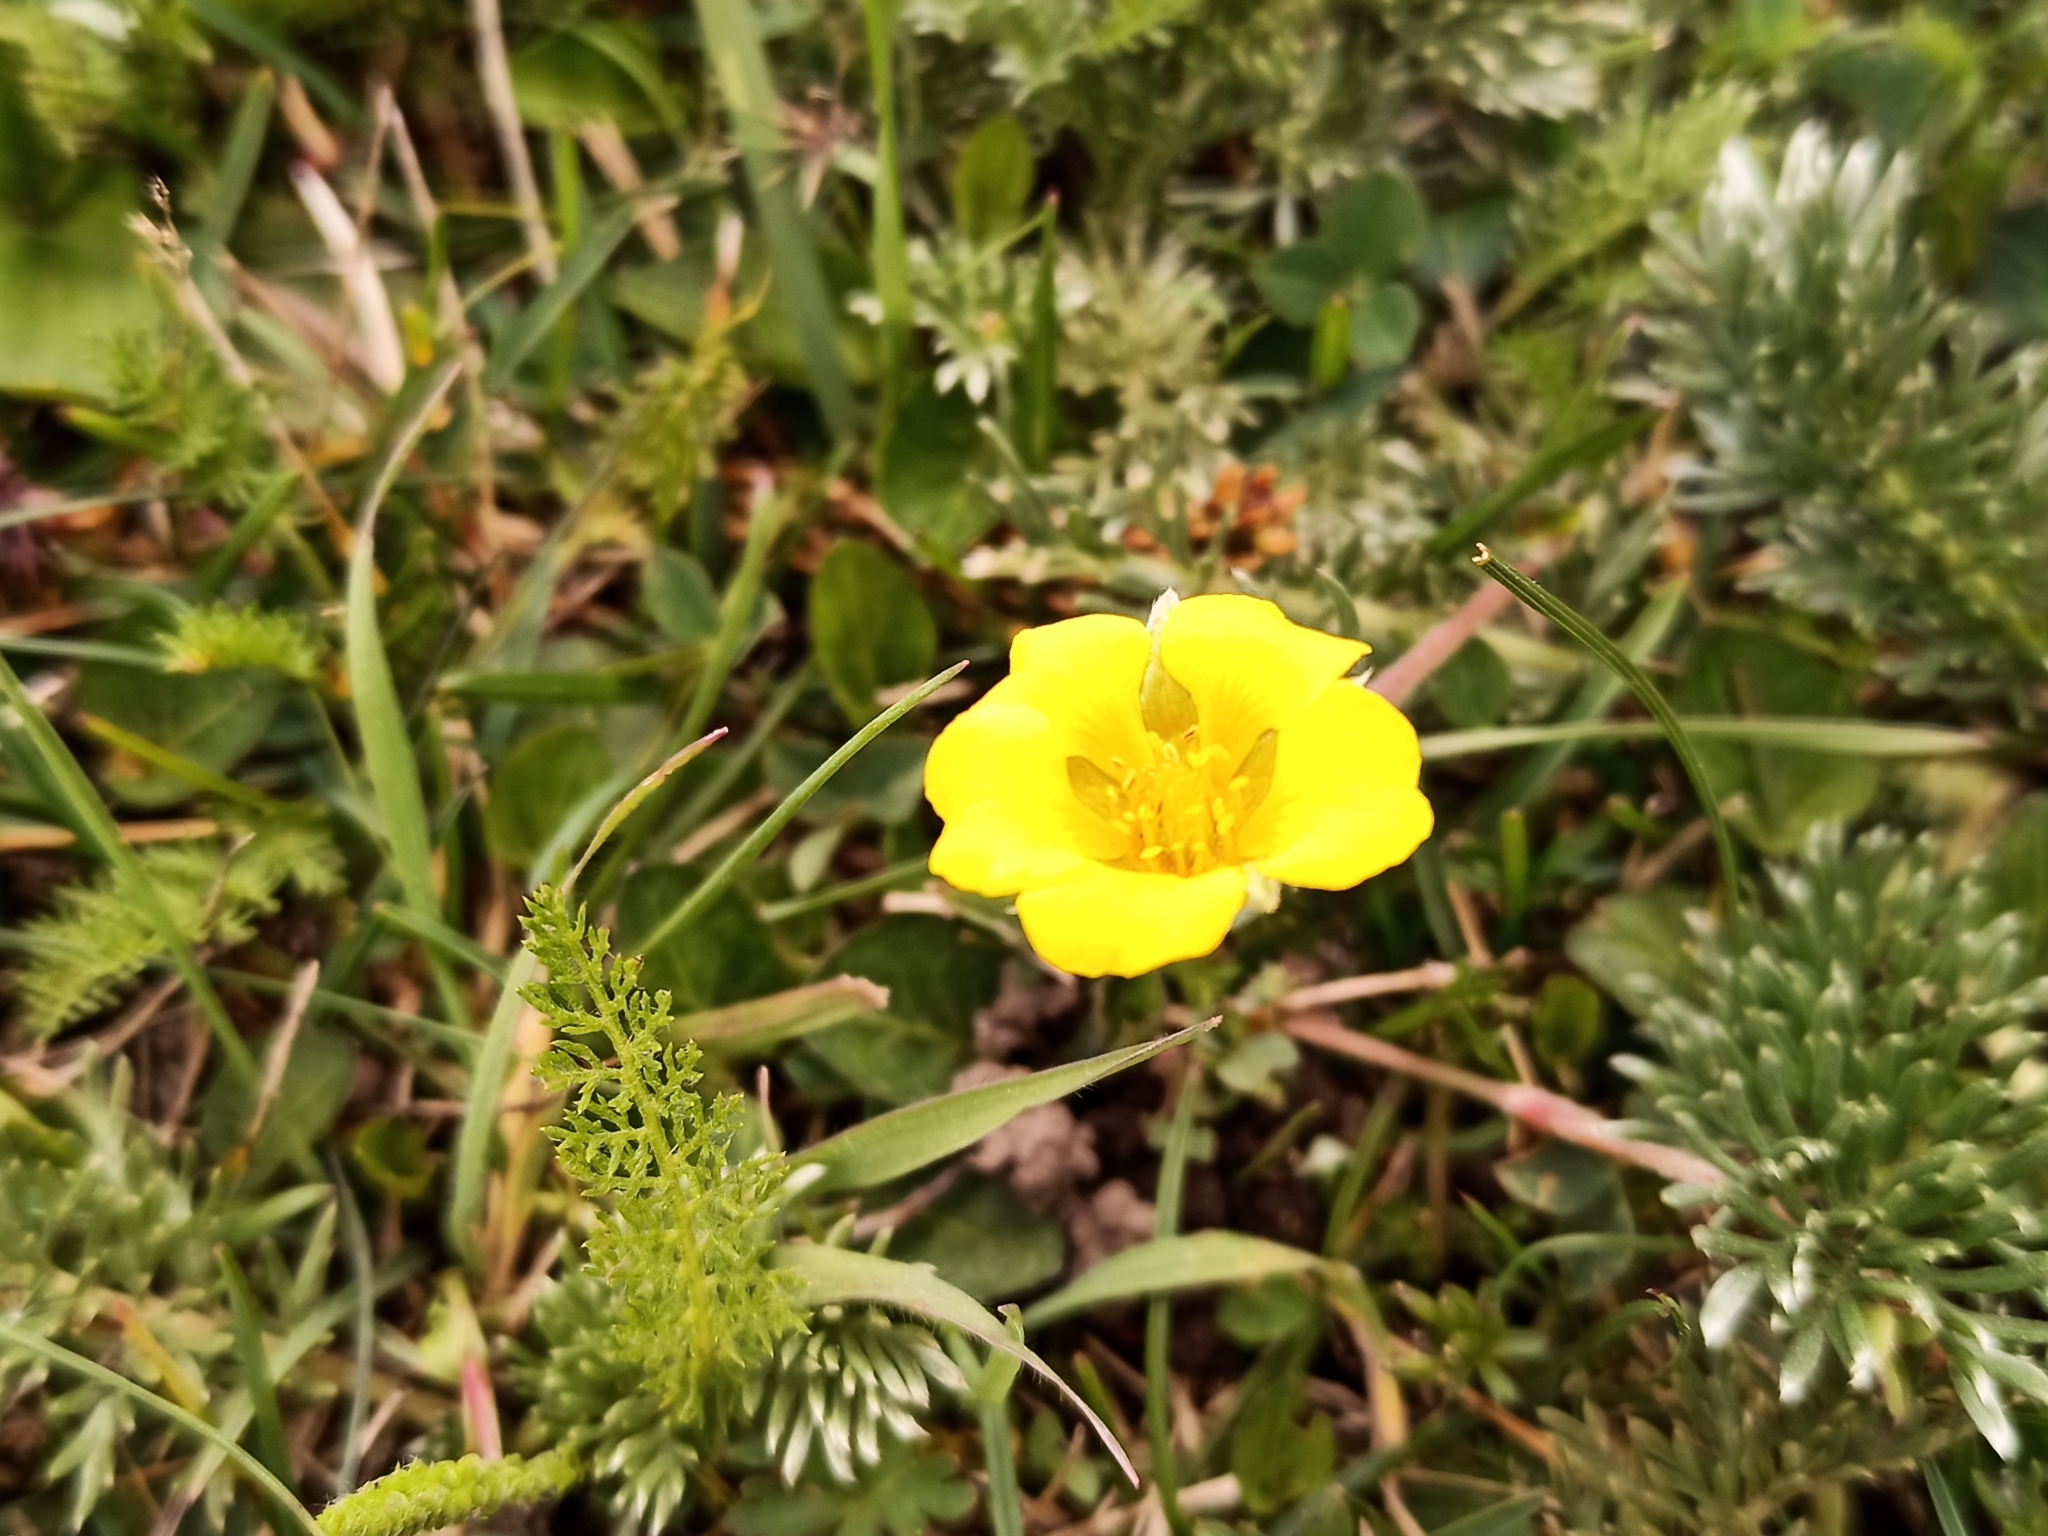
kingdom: Plantae
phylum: Tracheophyta
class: Magnoliopsida
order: Rosales
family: Rosaceae
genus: Potentilla
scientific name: Potentilla candicans
